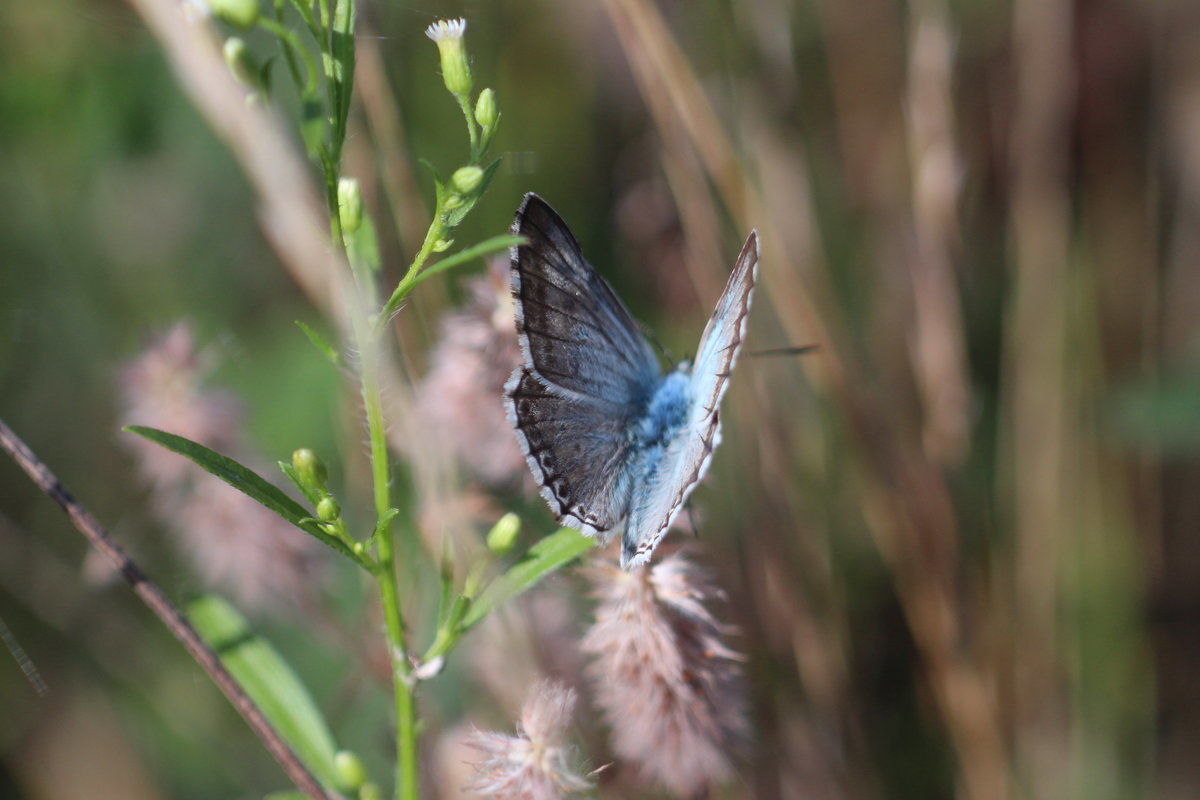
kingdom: Animalia
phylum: Arthropoda
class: Insecta
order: Lepidoptera
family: Lycaenidae
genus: Lysandra
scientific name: Lysandra coridon
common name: Chalkhill blue
